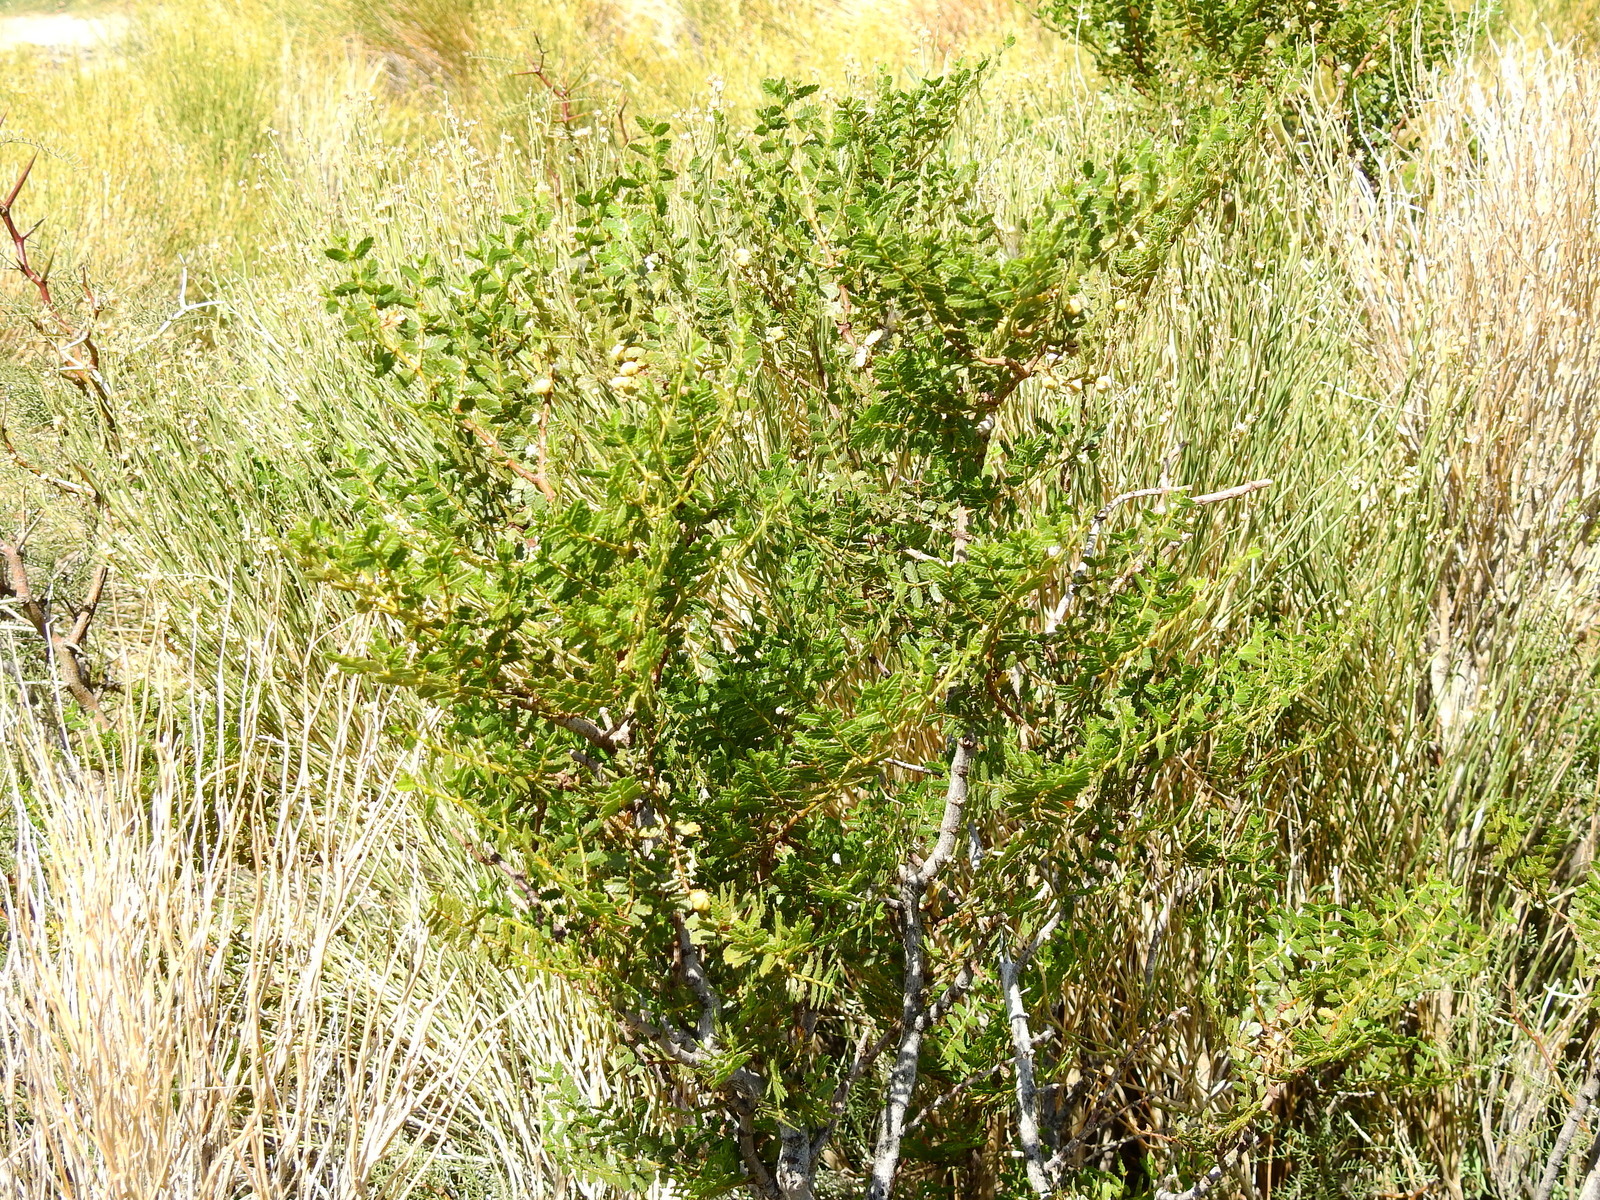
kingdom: Plantae
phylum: Tracheophyta
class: Magnoliopsida
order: Zygophyllales
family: Zygophyllaceae
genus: Larrea
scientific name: Larrea nitida
